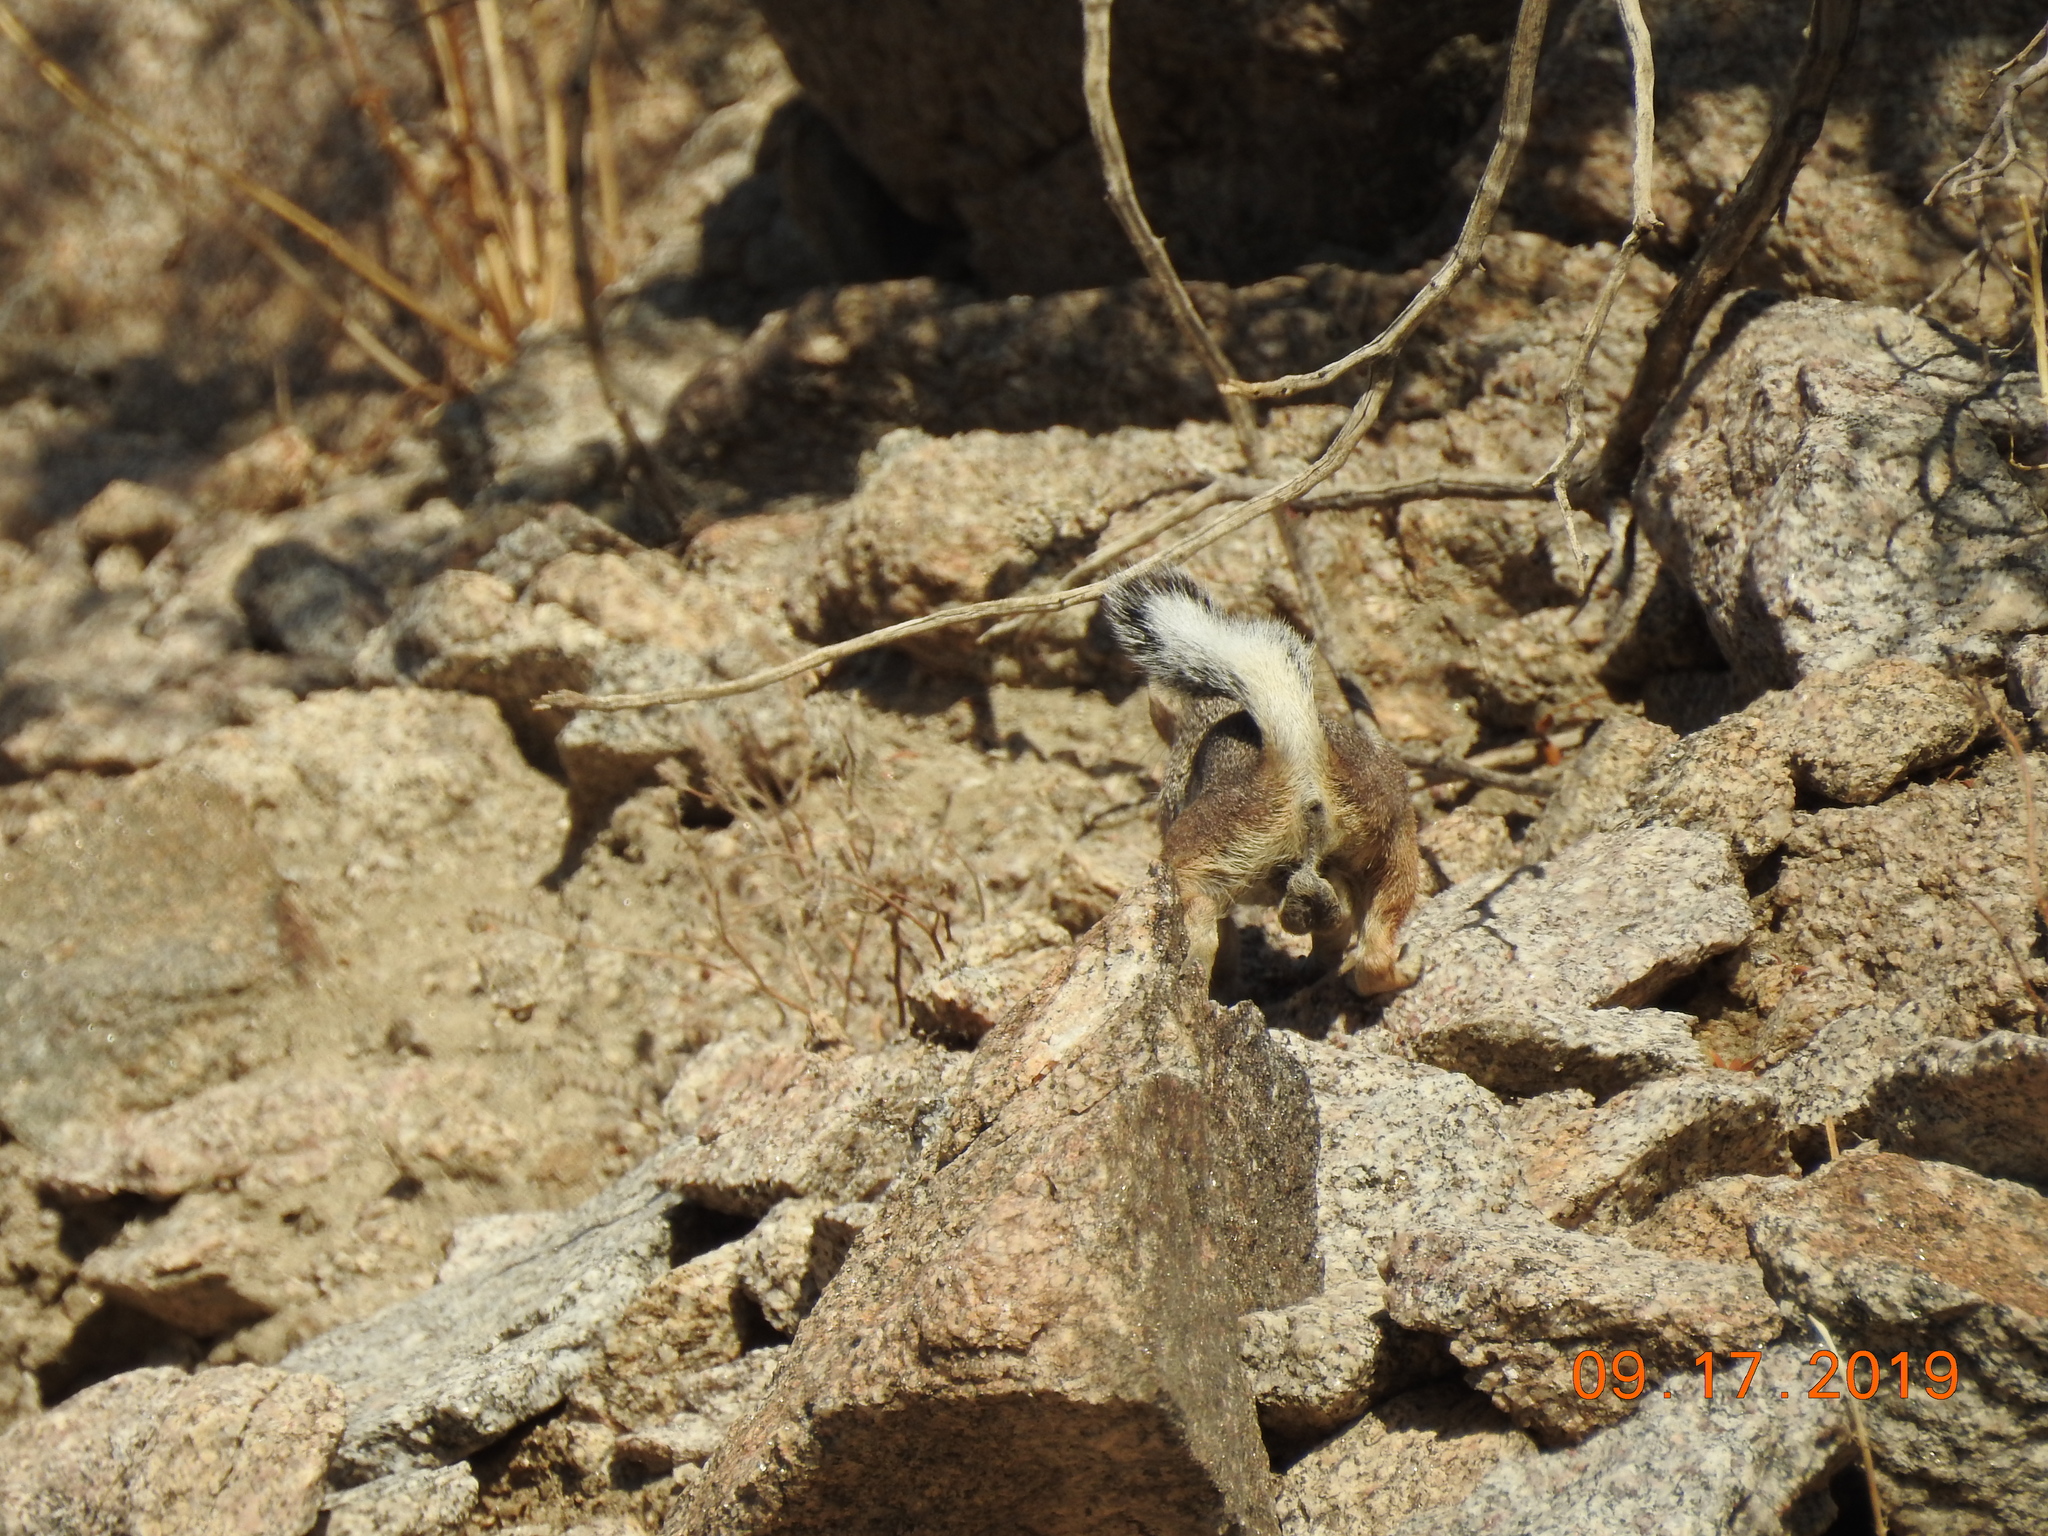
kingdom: Animalia
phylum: Chordata
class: Mammalia
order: Rodentia
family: Sciuridae
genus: Ammospermophilus
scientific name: Ammospermophilus leucurus
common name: White-tailed antelope squirrel
